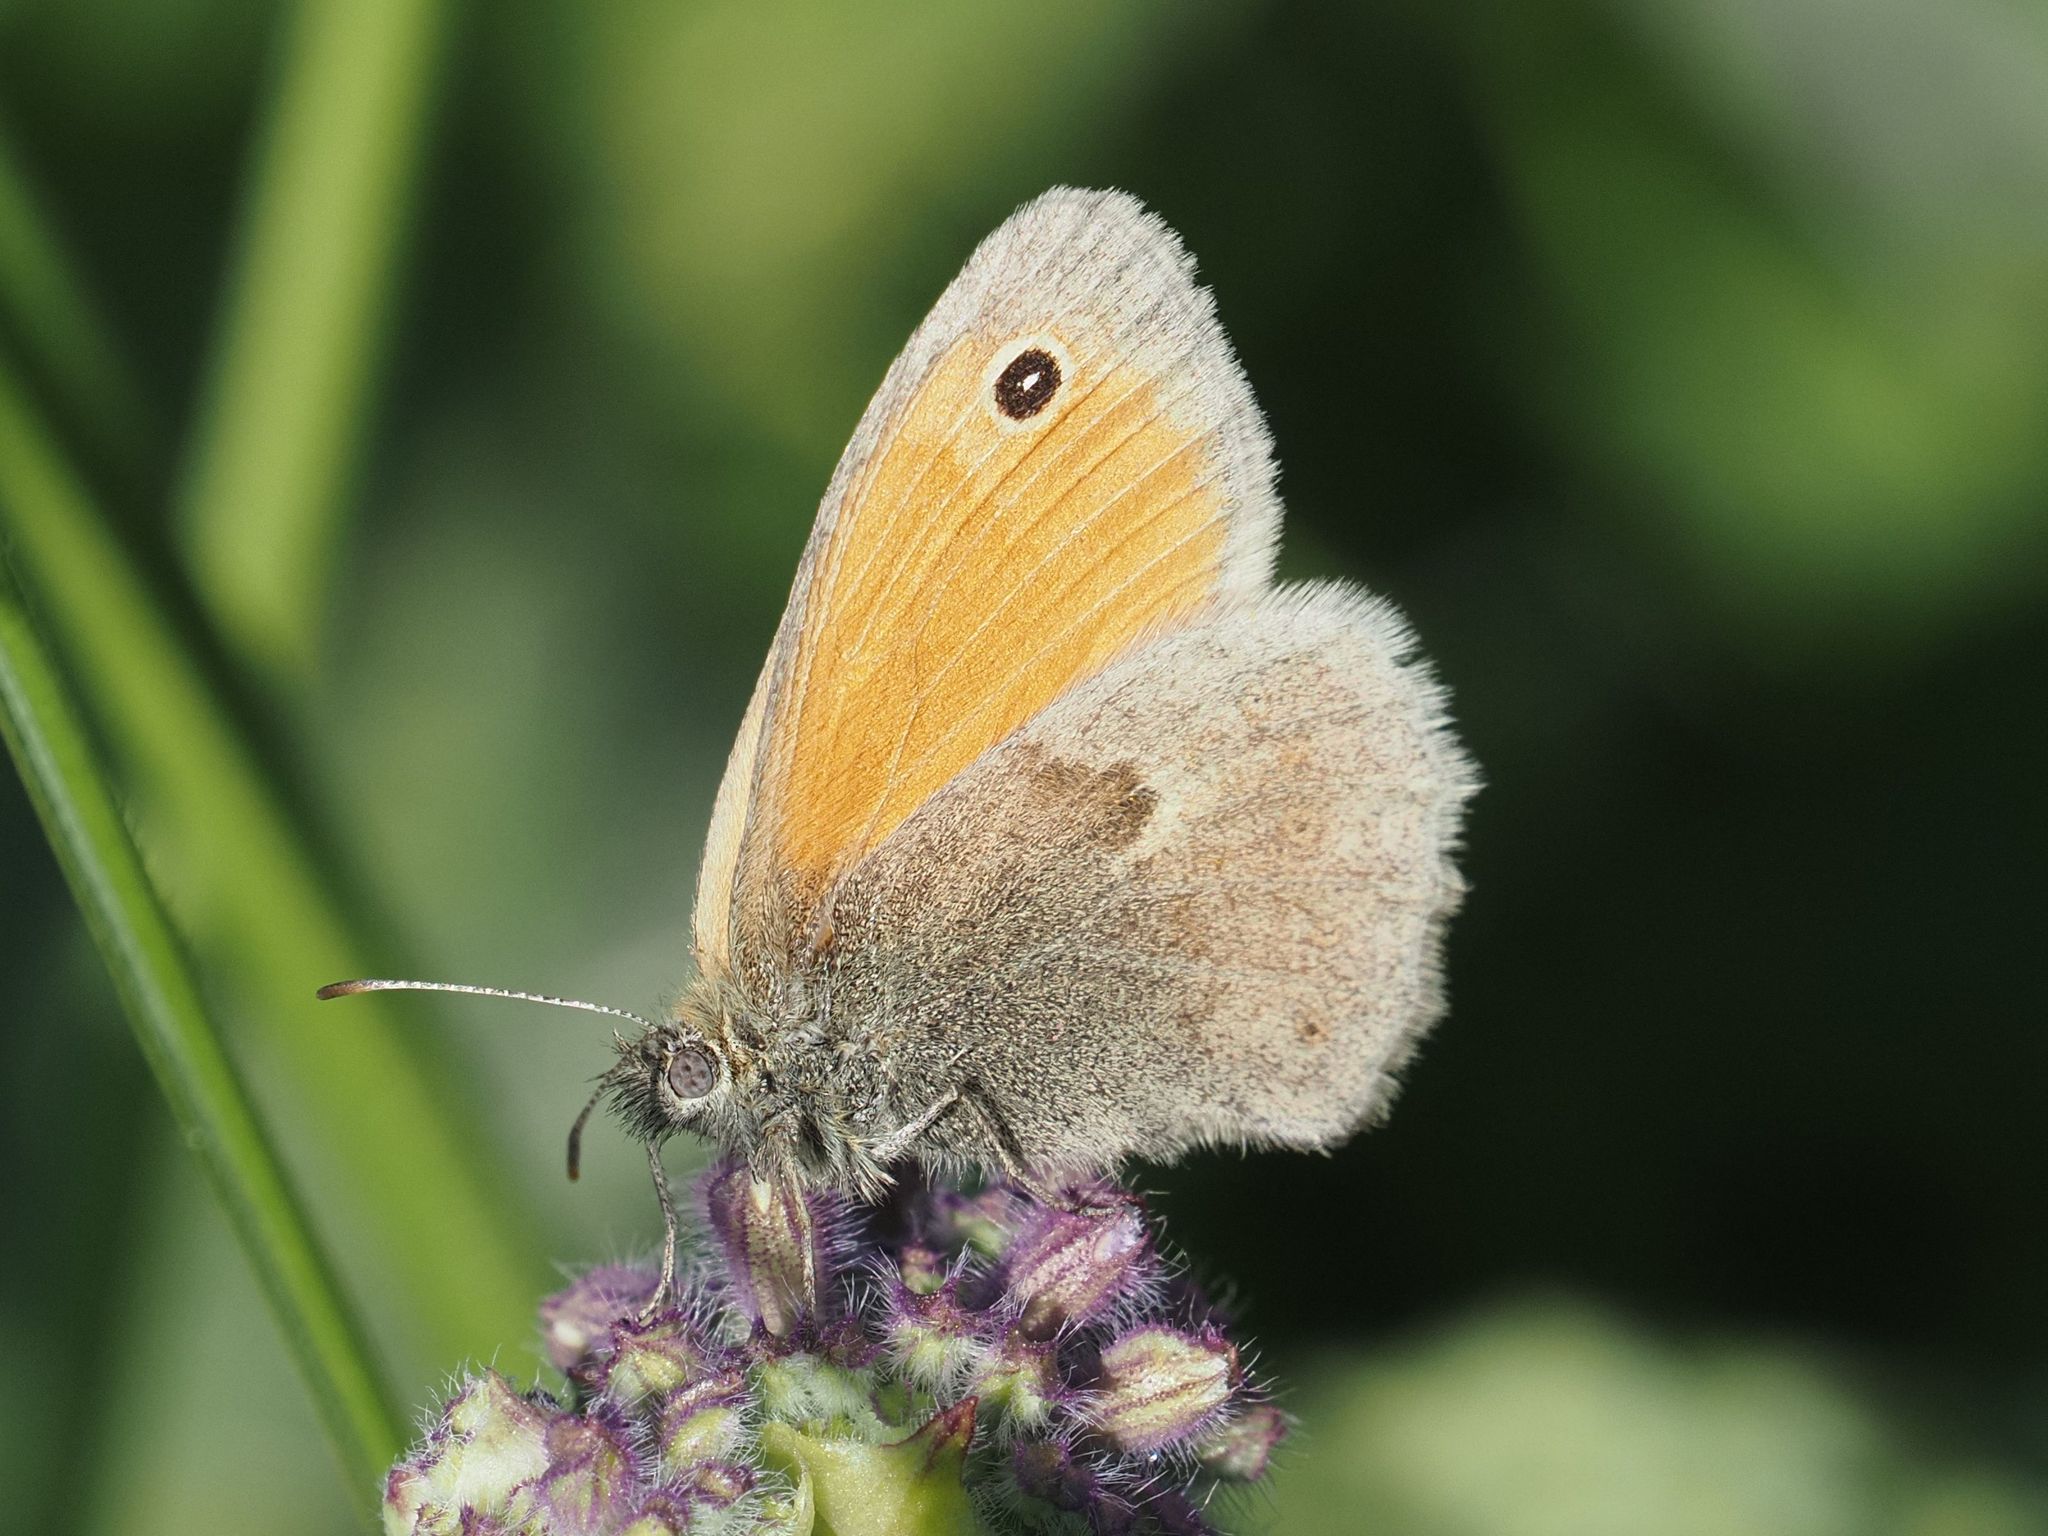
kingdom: Animalia
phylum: Arthropoda
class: Insecta
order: Lepidoptera
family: Nymphalidae
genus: Coenonympha
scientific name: Coenonympha pamphilus
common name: Small heath
